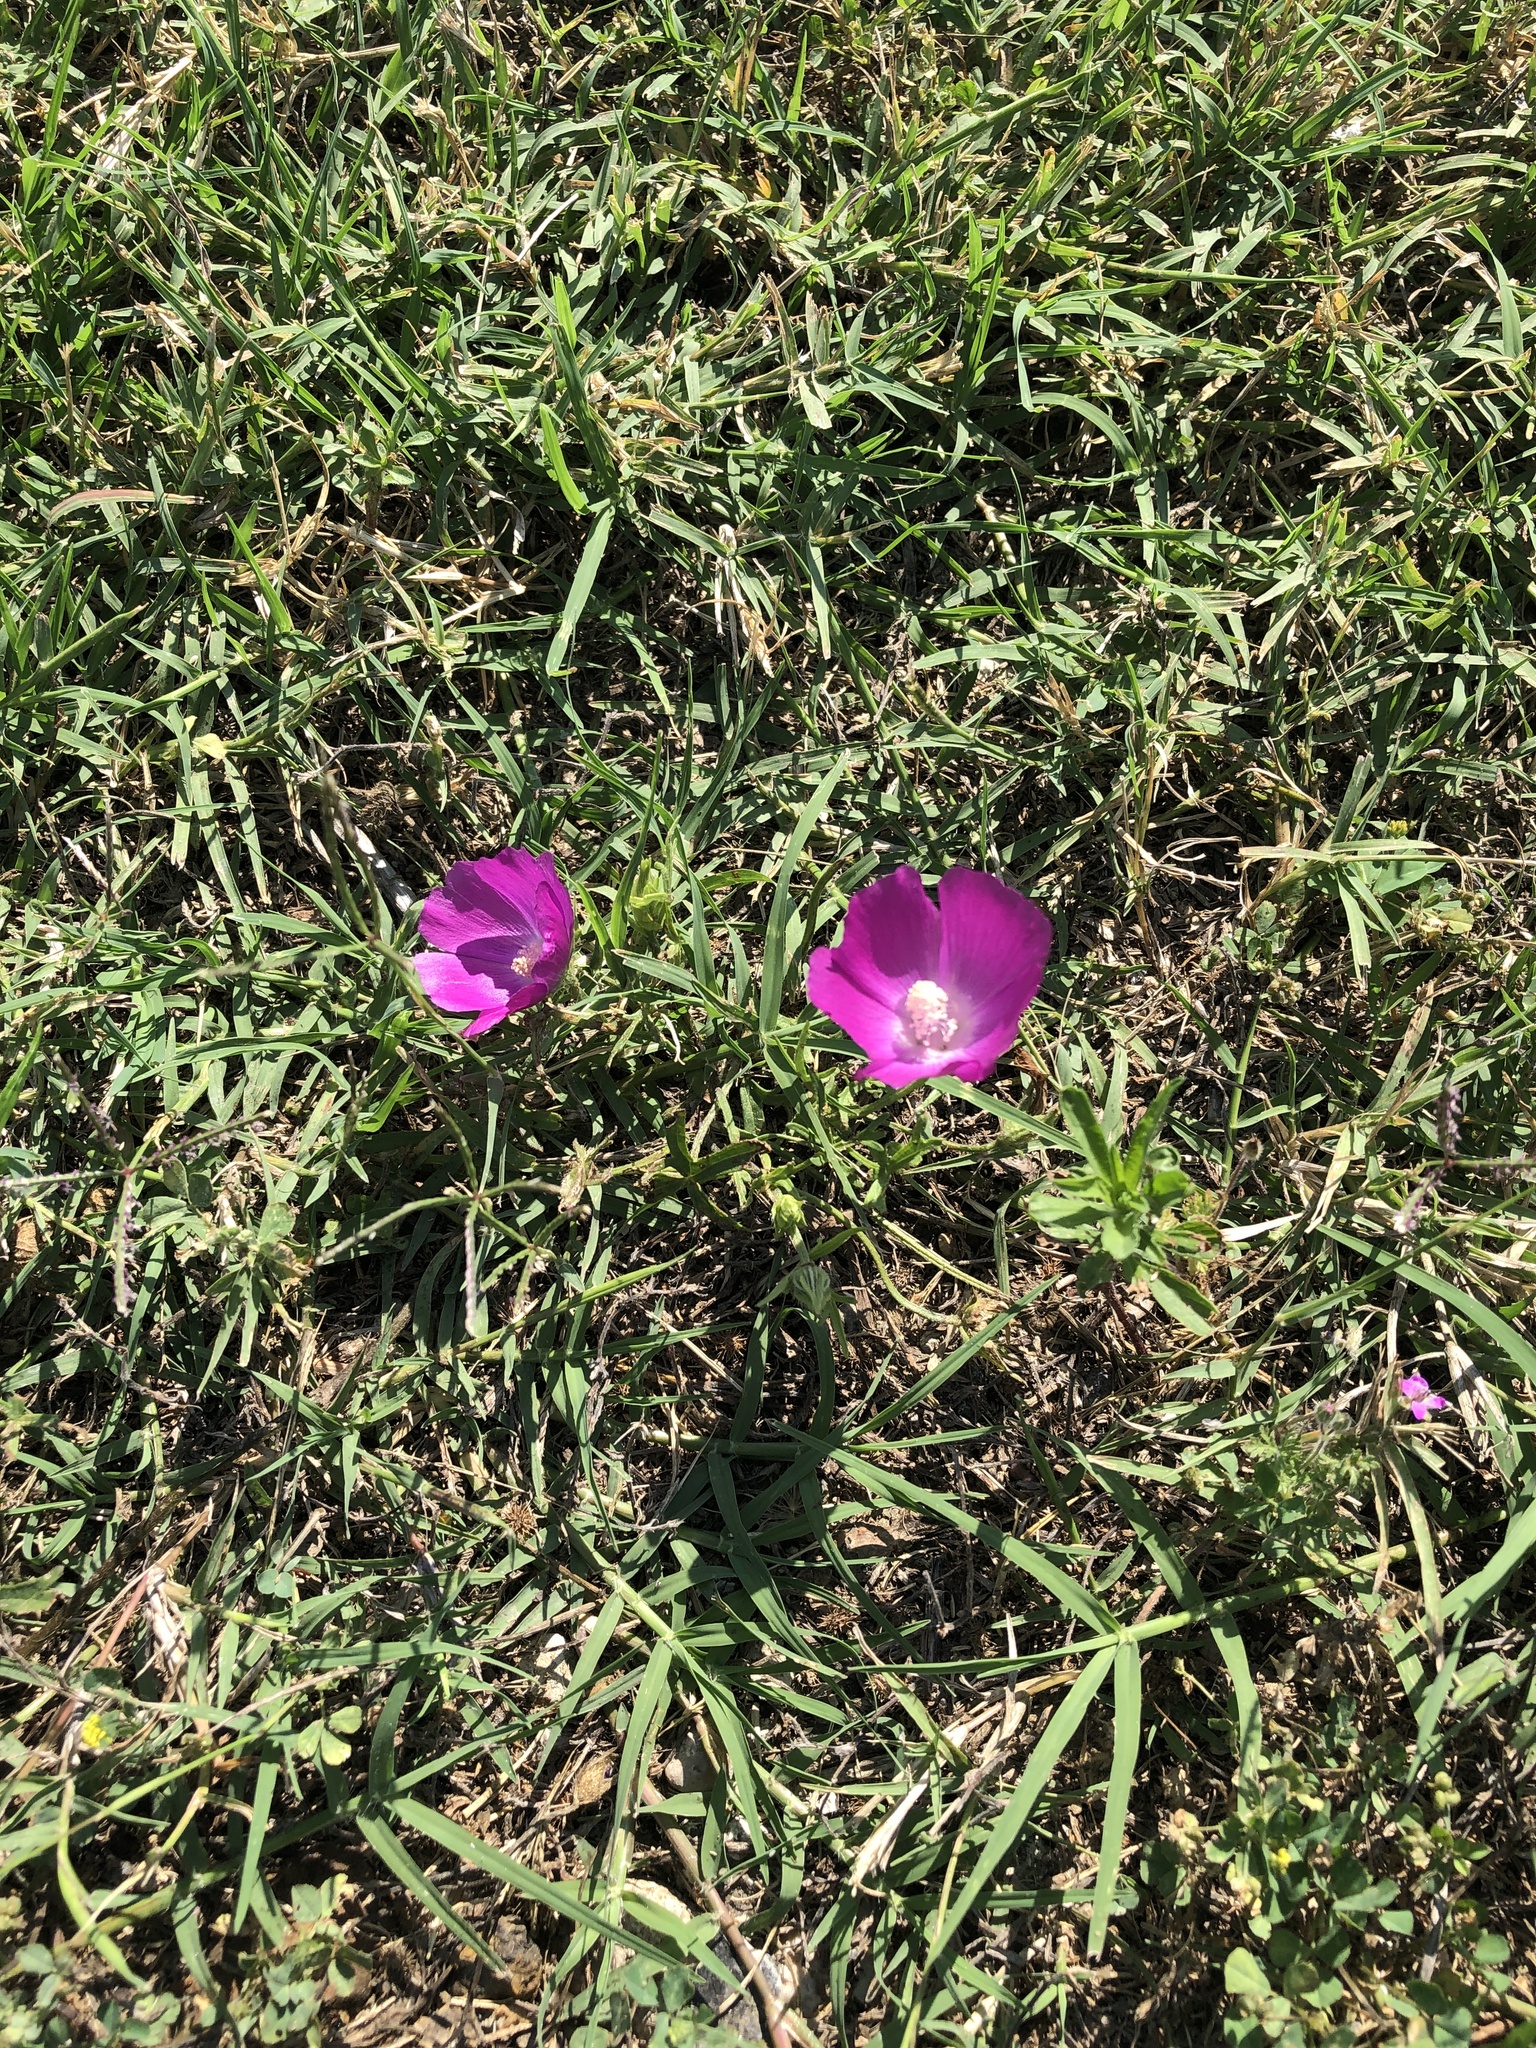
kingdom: Plantae
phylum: Tracheophyta
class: Magnoliopsida
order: Malvales
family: Malvaceae
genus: Callirhoe
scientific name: Callirhoe involucrata
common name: Purple poppy-mallow
